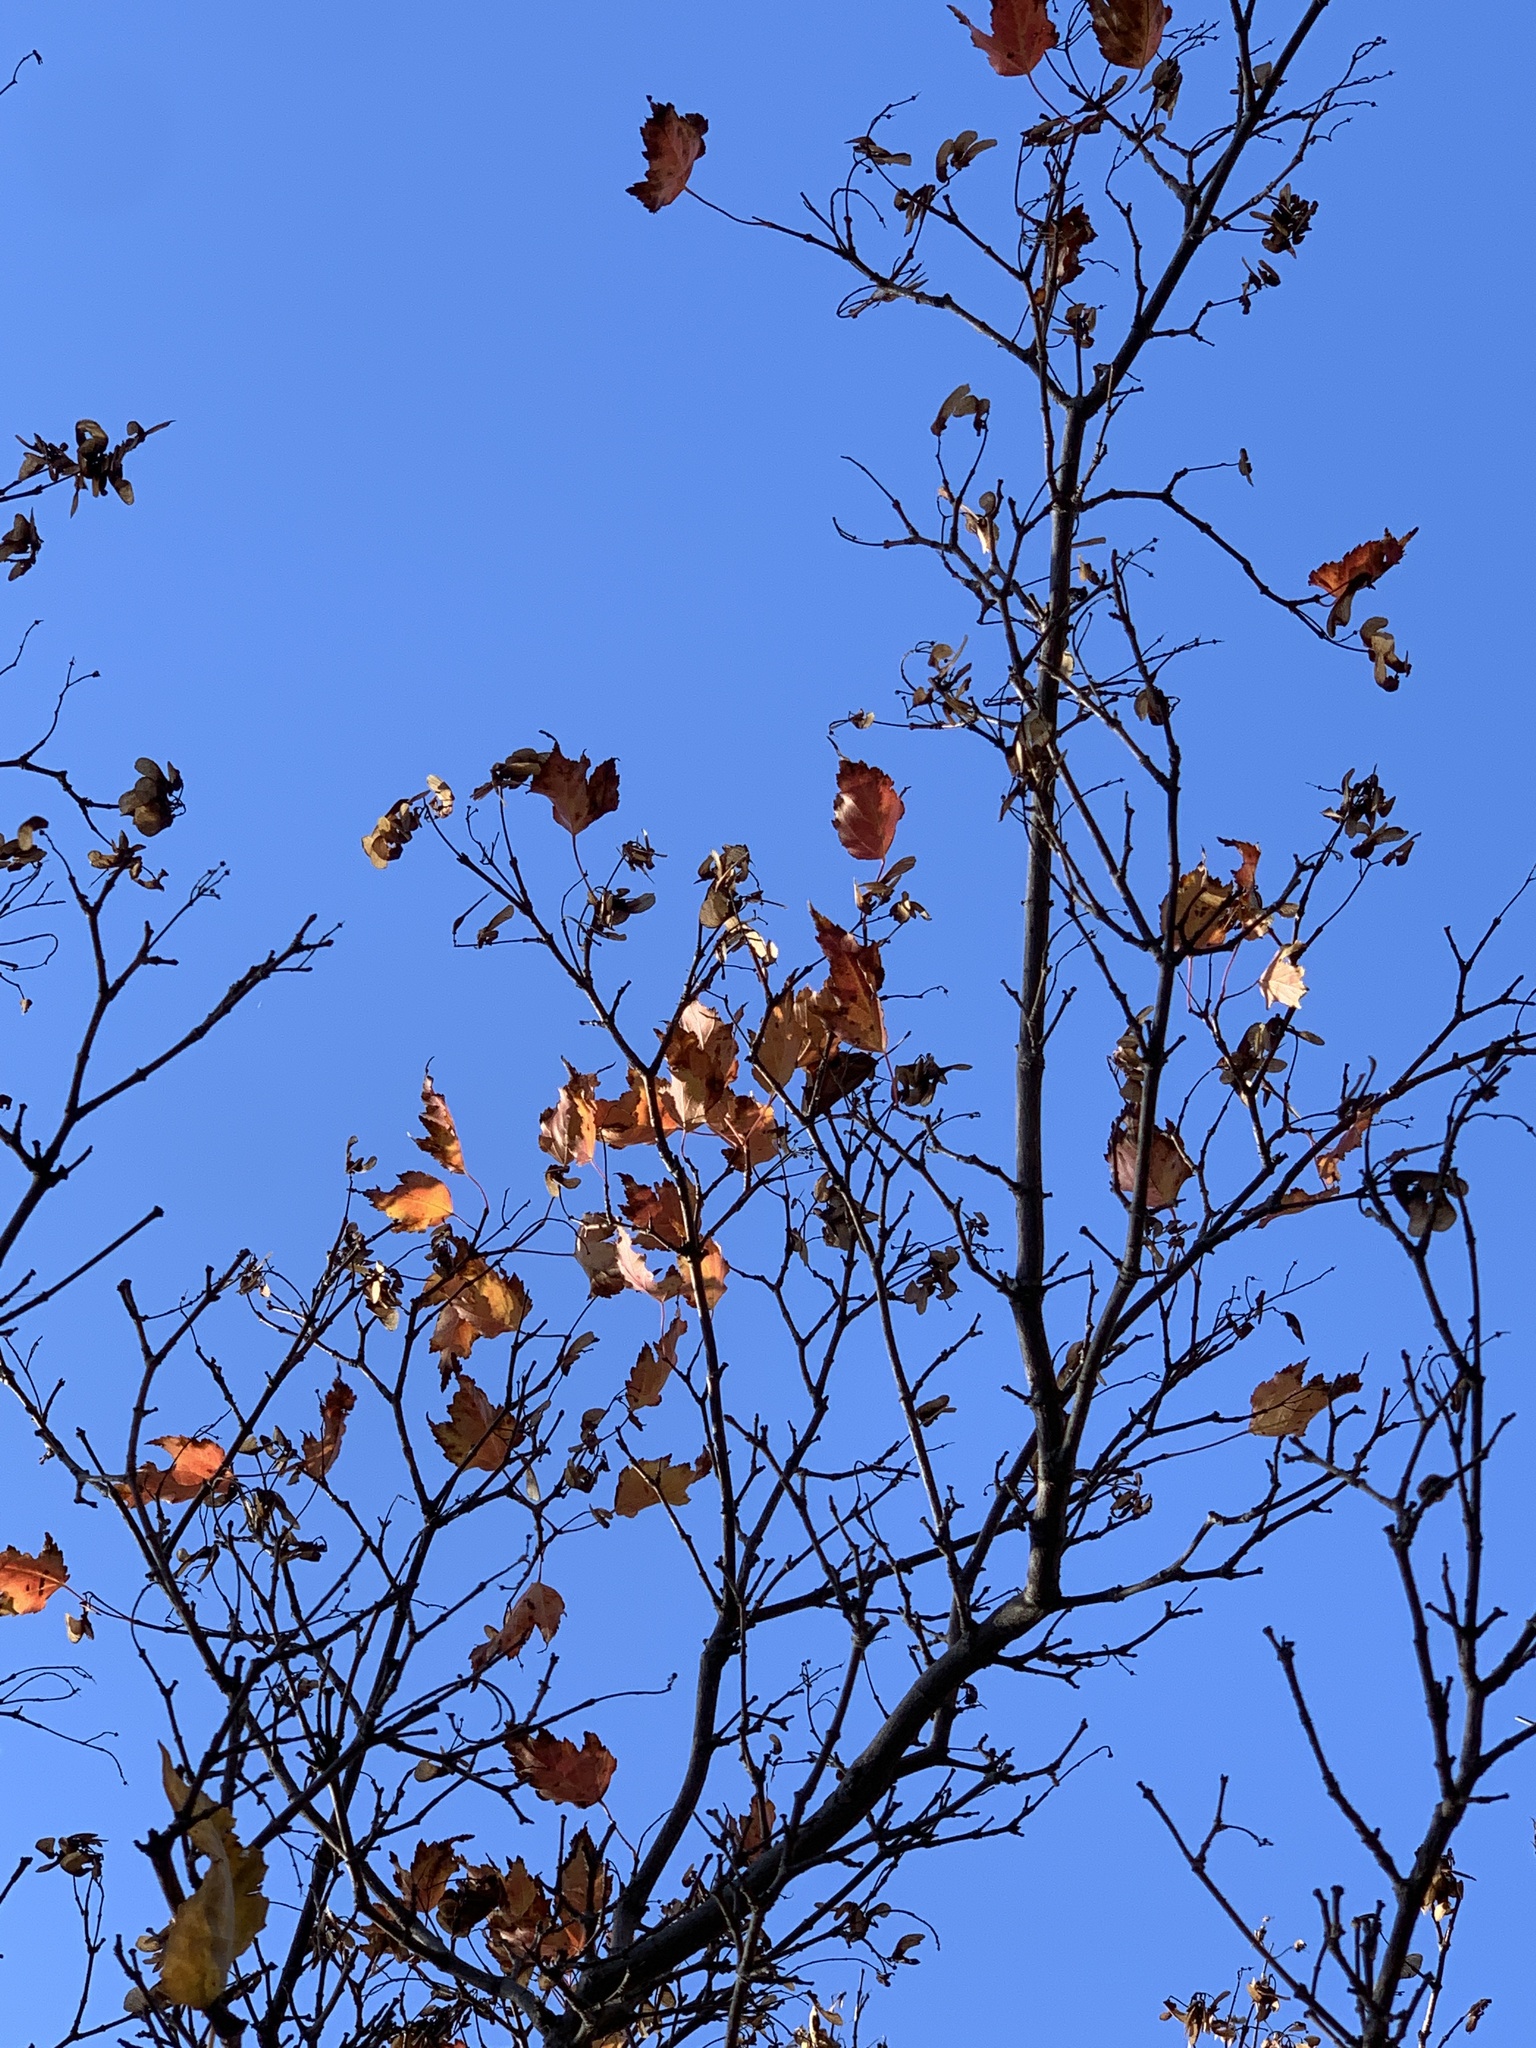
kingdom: Plantae
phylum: Tracheophyta
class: Magnoliopsida
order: Sapindales
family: Sapindaceae
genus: Acer
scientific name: Acer tataricum
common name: Tartar maple
